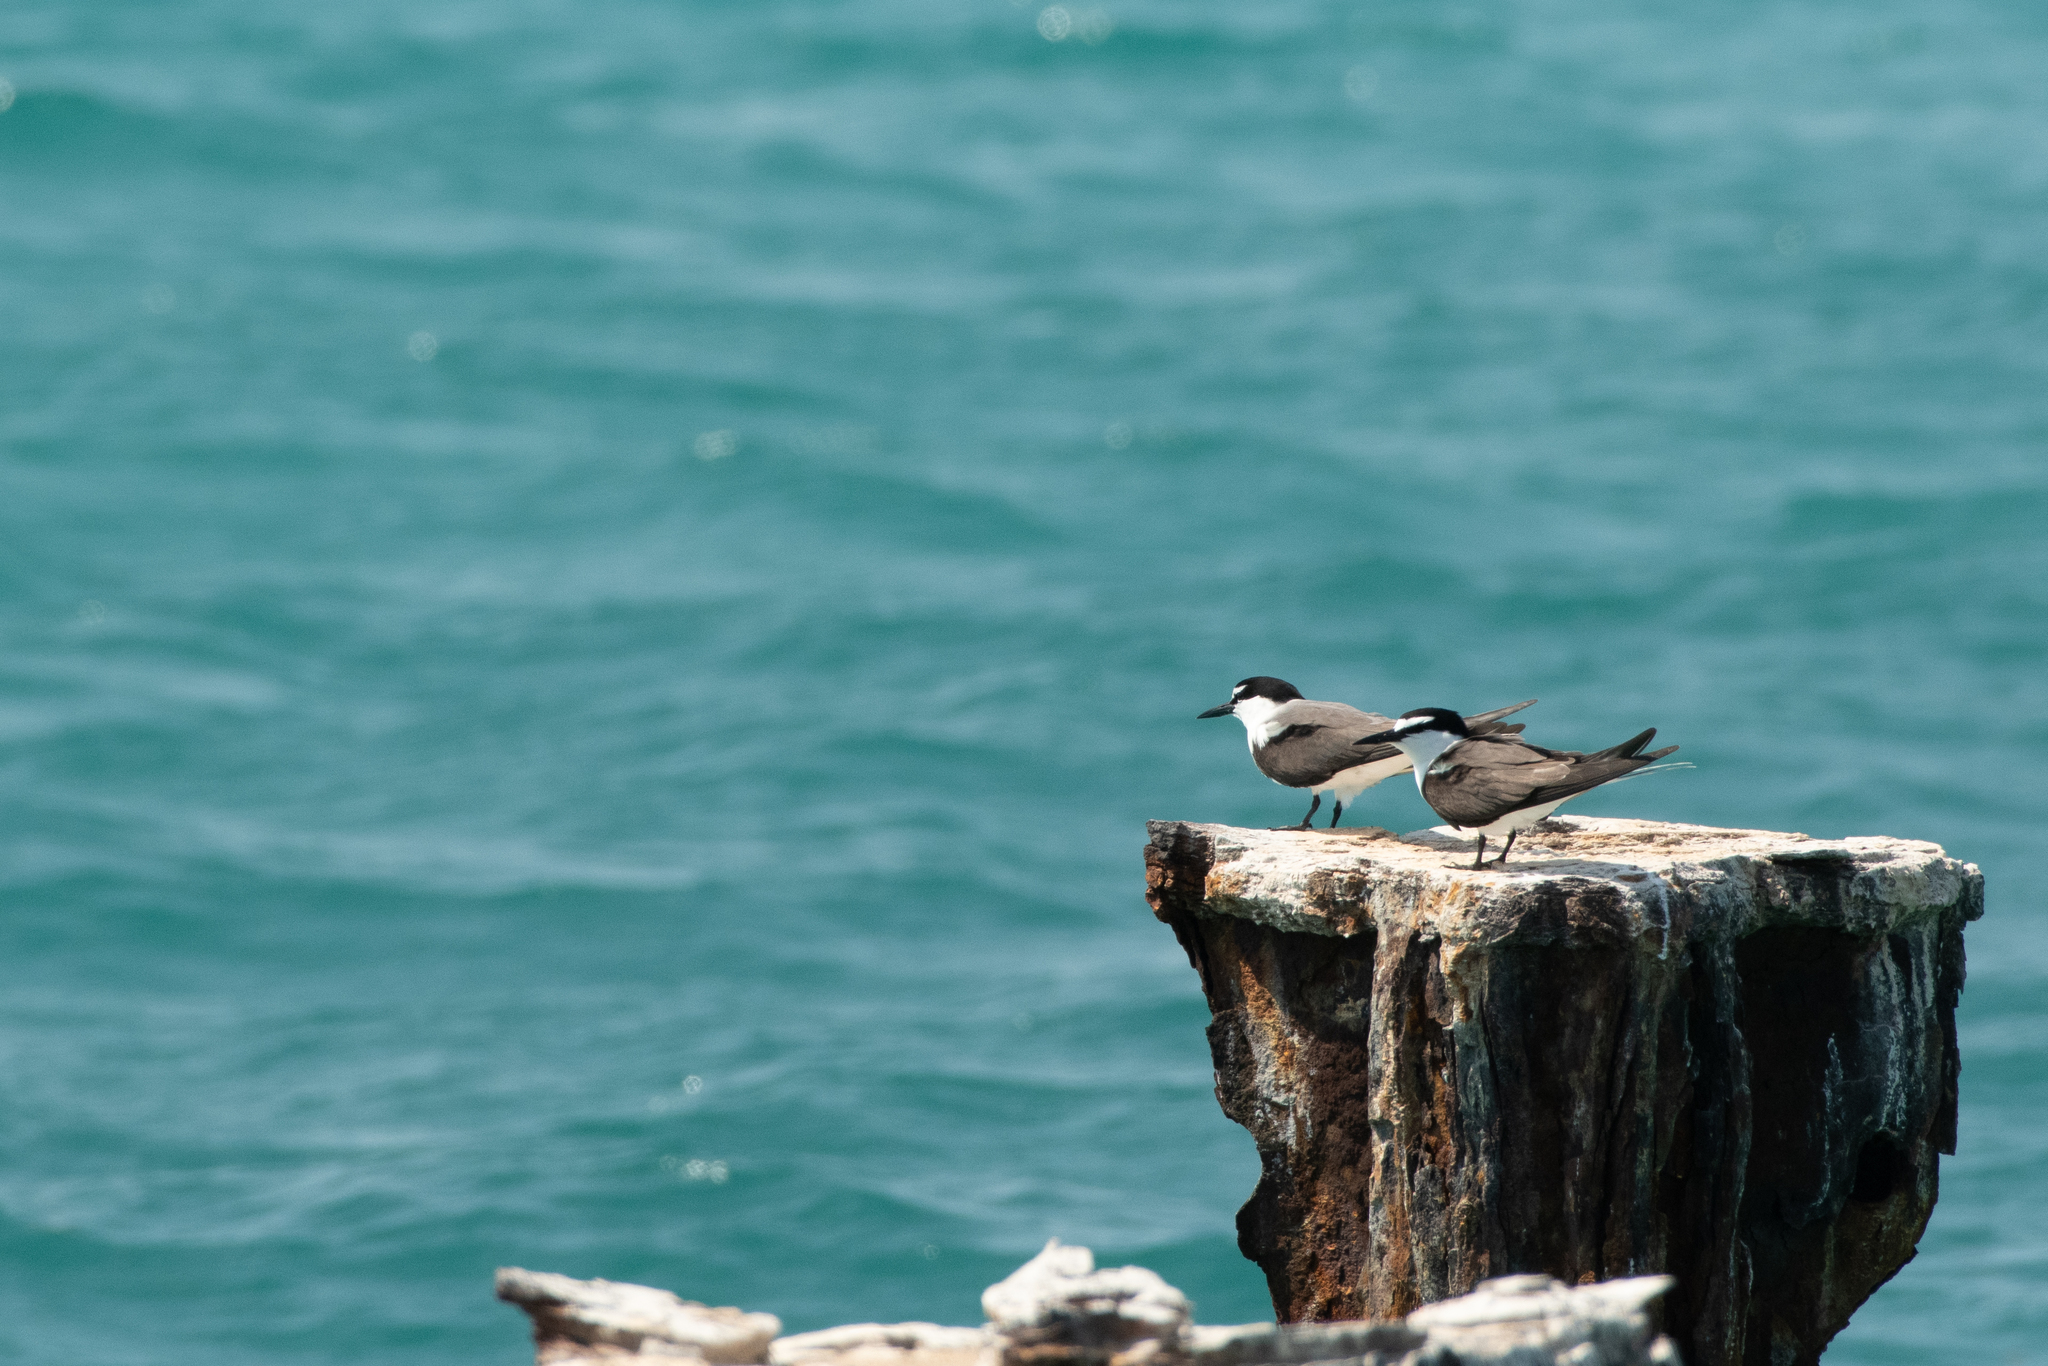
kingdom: Animalia
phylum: Chordata
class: Aves
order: Charadriiformes
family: Laridae
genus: Onychoprion
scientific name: Onychoprion anaethetus
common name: Bridled tern
